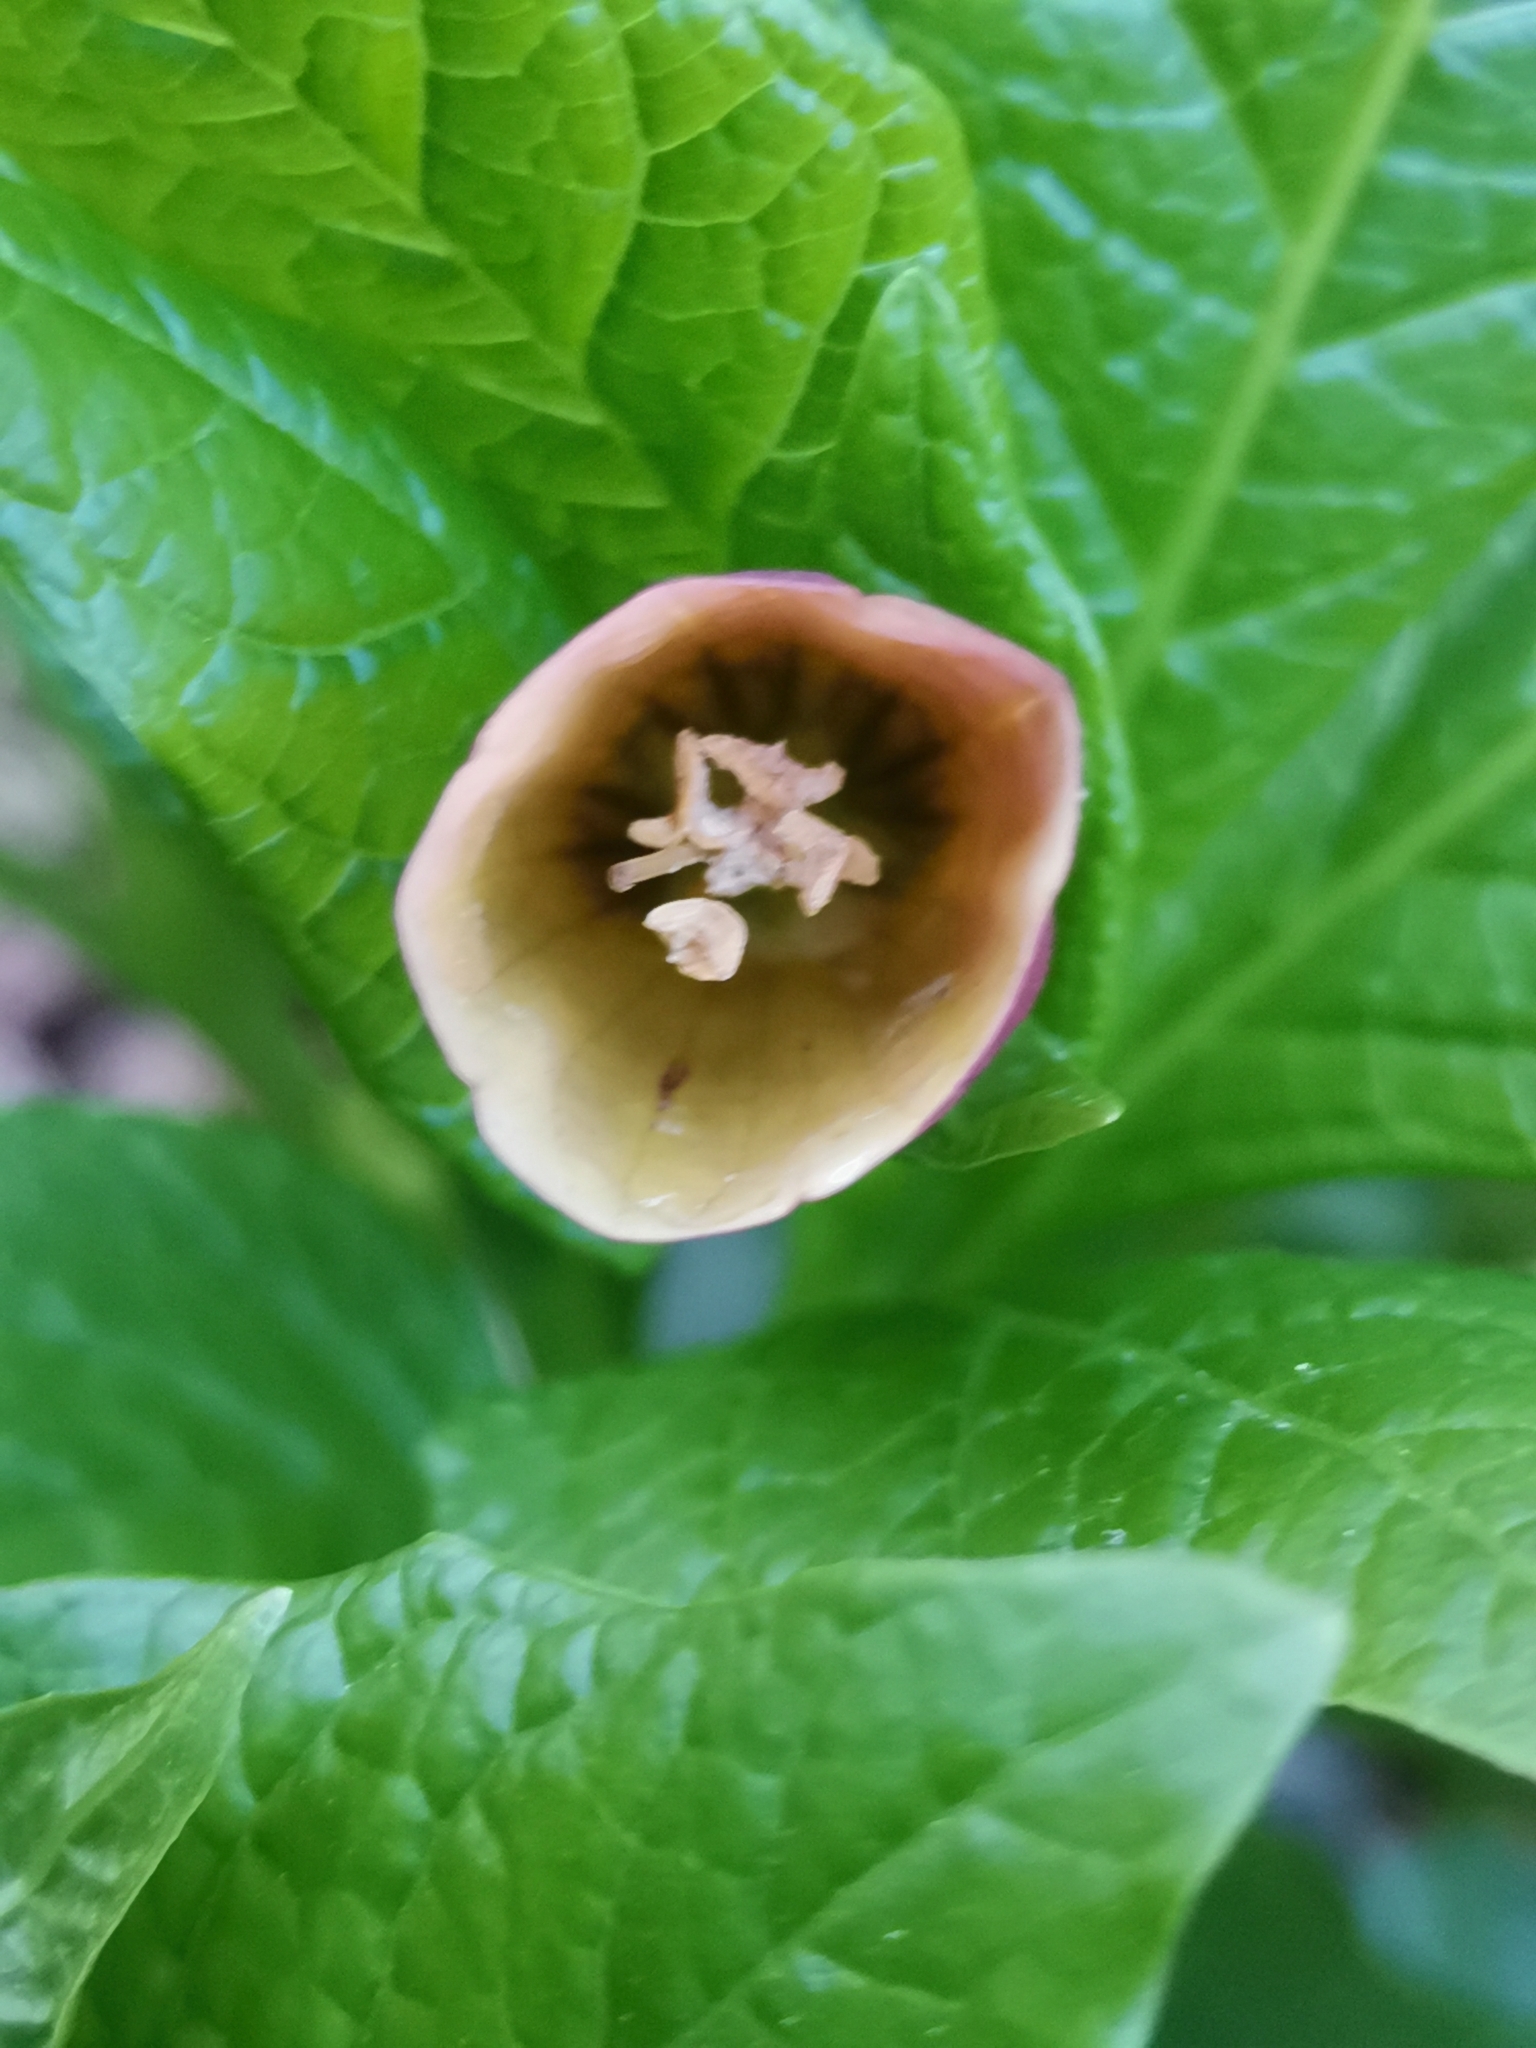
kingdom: Plantae
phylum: Tracheophyta
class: Magnoliopsida
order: Solanales
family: Solanaceae
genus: Scopolia
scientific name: Scopolia carniolica
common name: Scopolia
